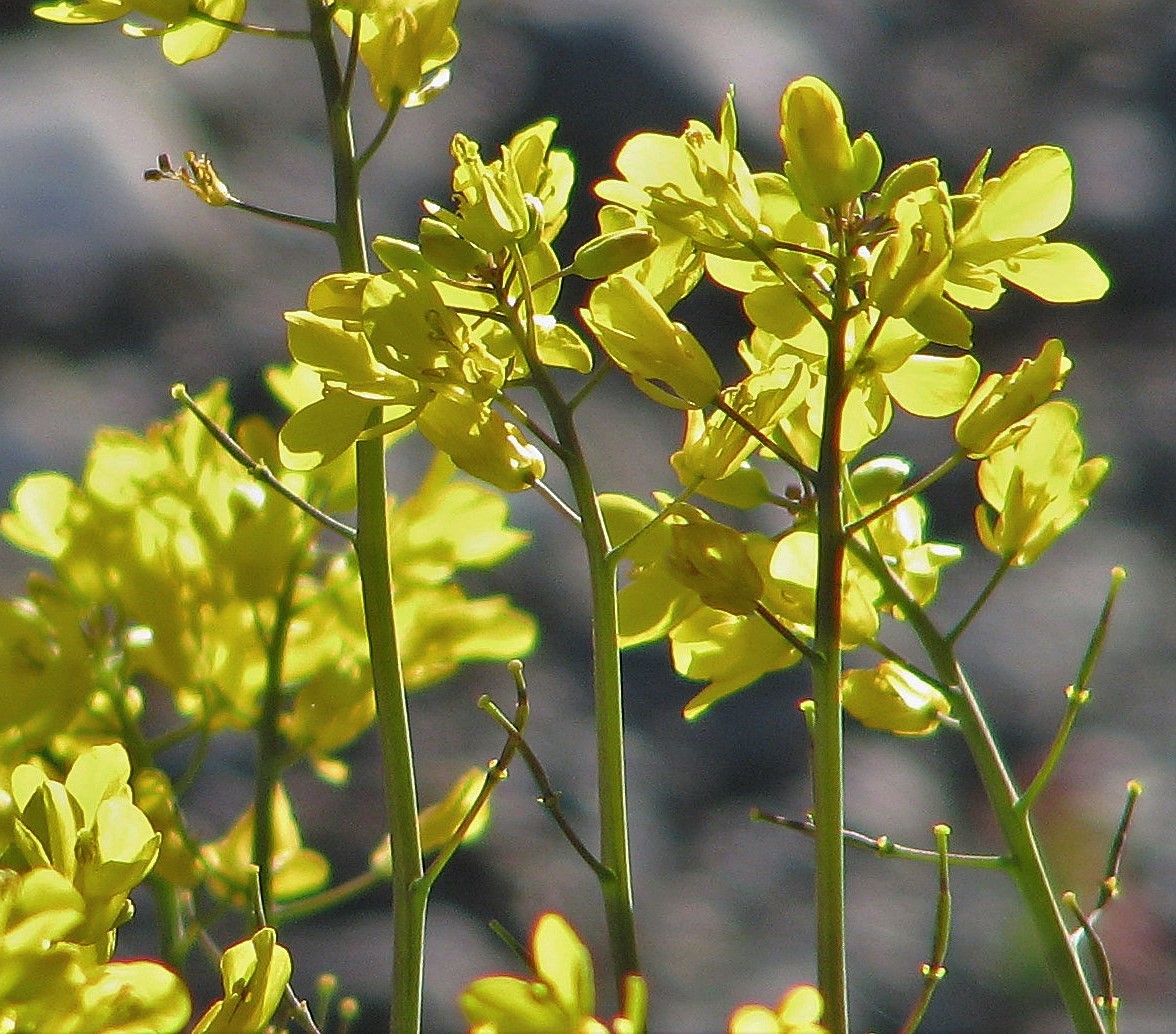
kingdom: Plantae
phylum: Tracheophyta
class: Magnoliopsida
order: Brassicales
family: Brassicaceae
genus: Diplotaxis
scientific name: Diplotaxis tenuifolia
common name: Perennial wall-rocket
